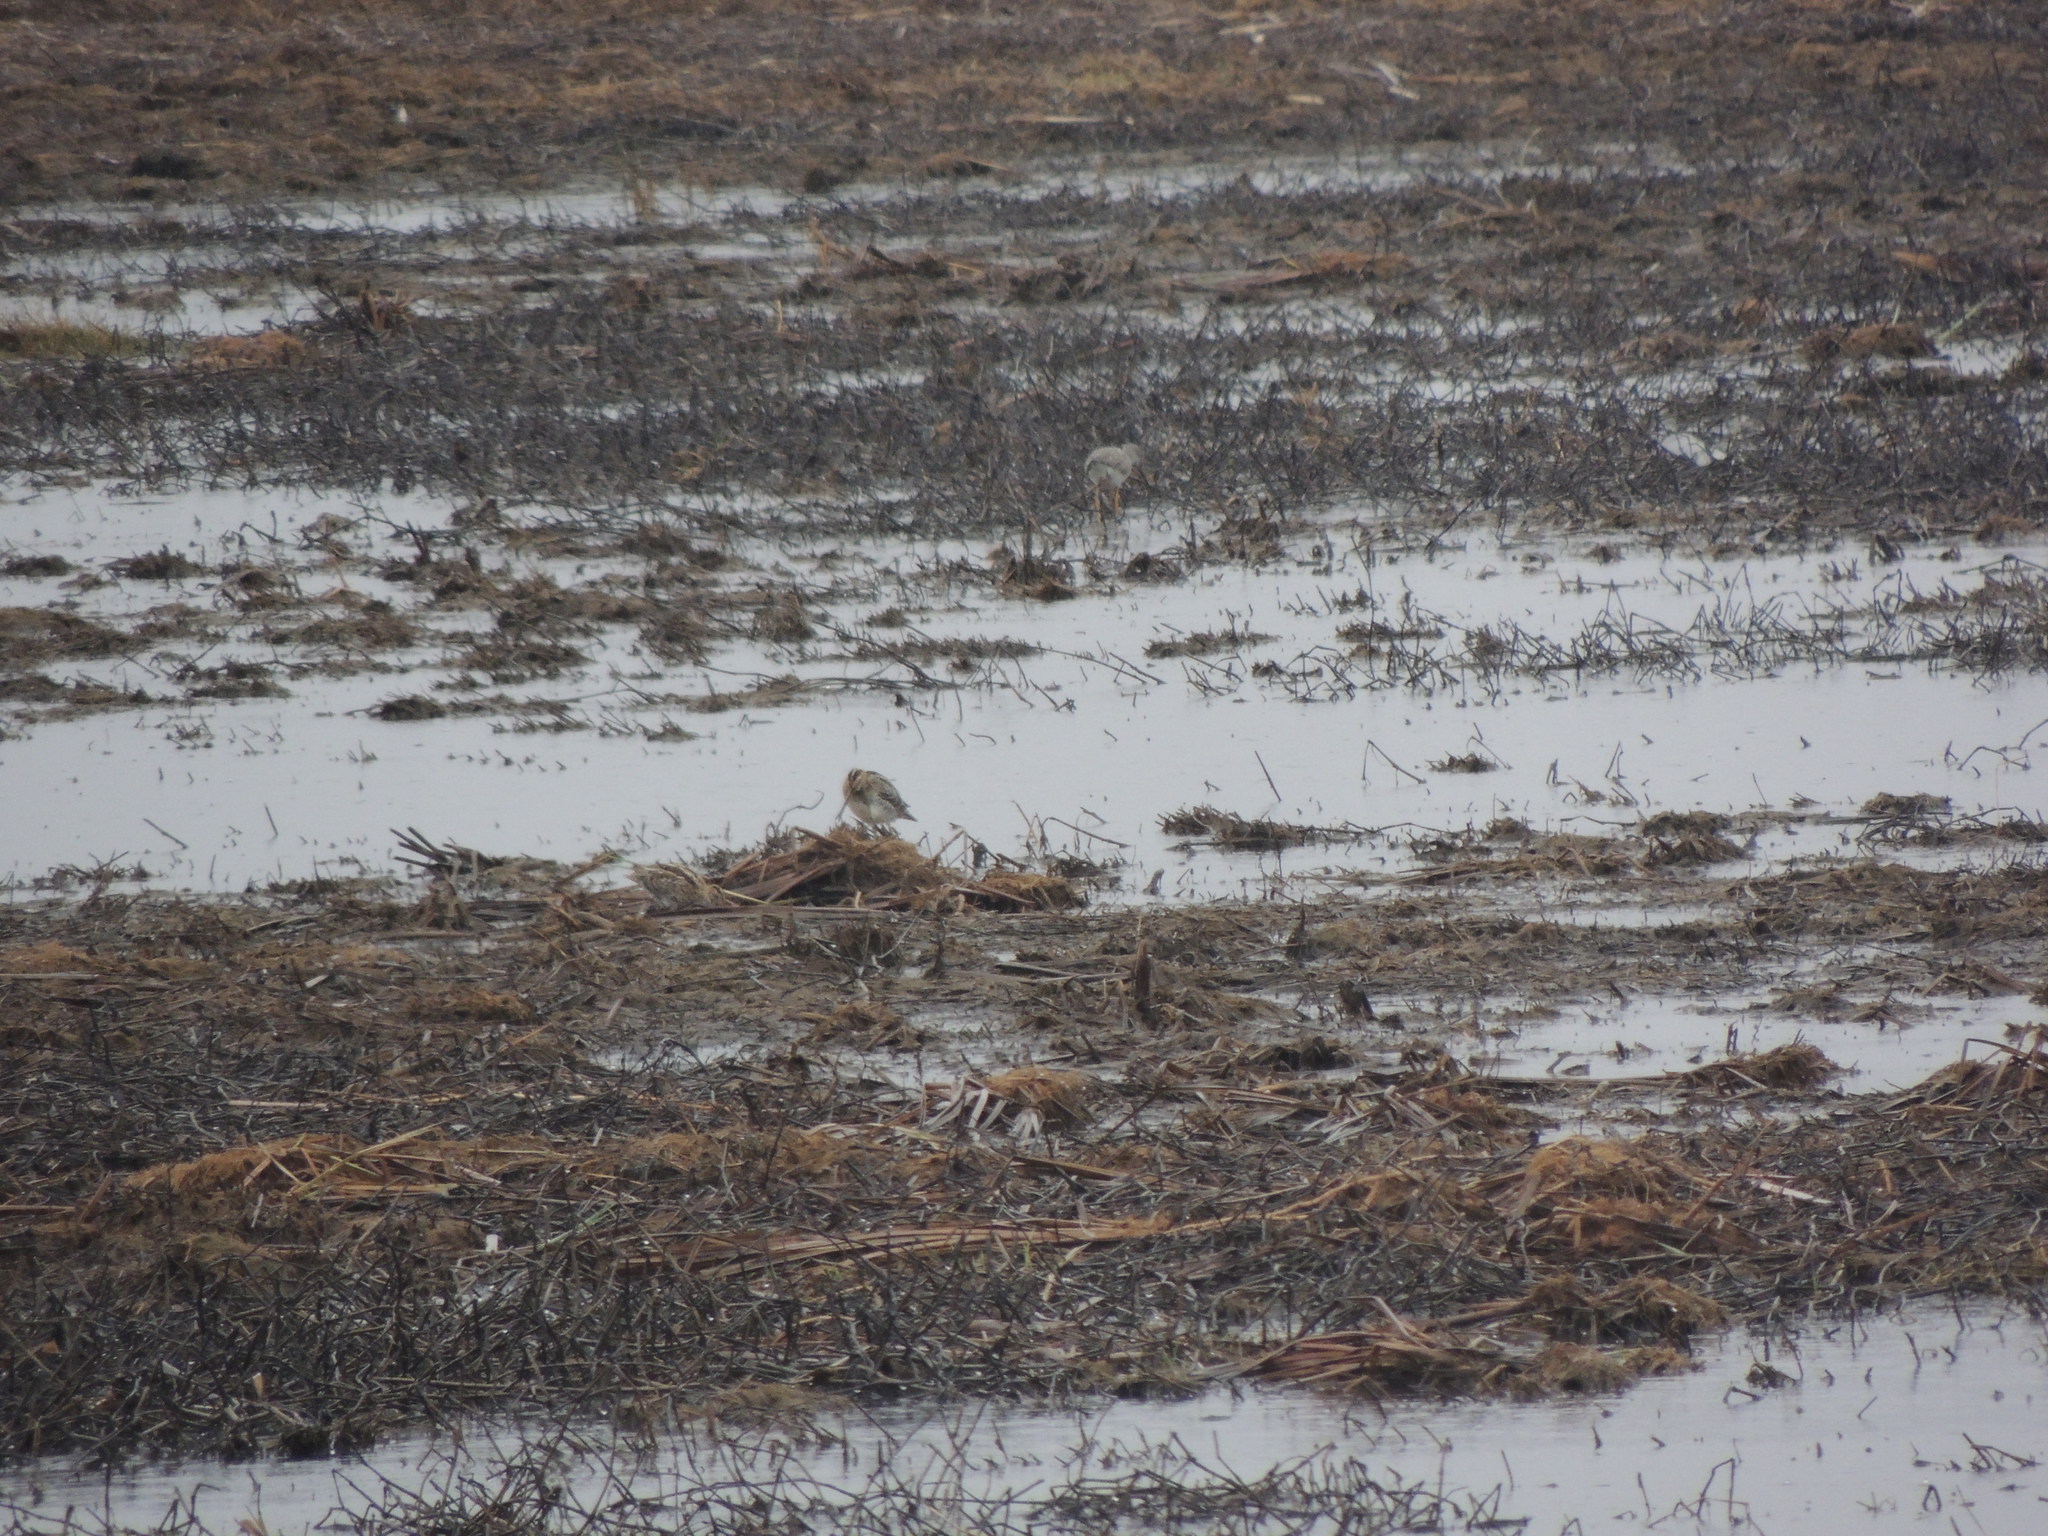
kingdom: Animalia
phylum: Chordata
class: Aves
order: Charadriiformes
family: Scolopacidae
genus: Gallinago
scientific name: Gallinago delicata
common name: Wilson's snipe
